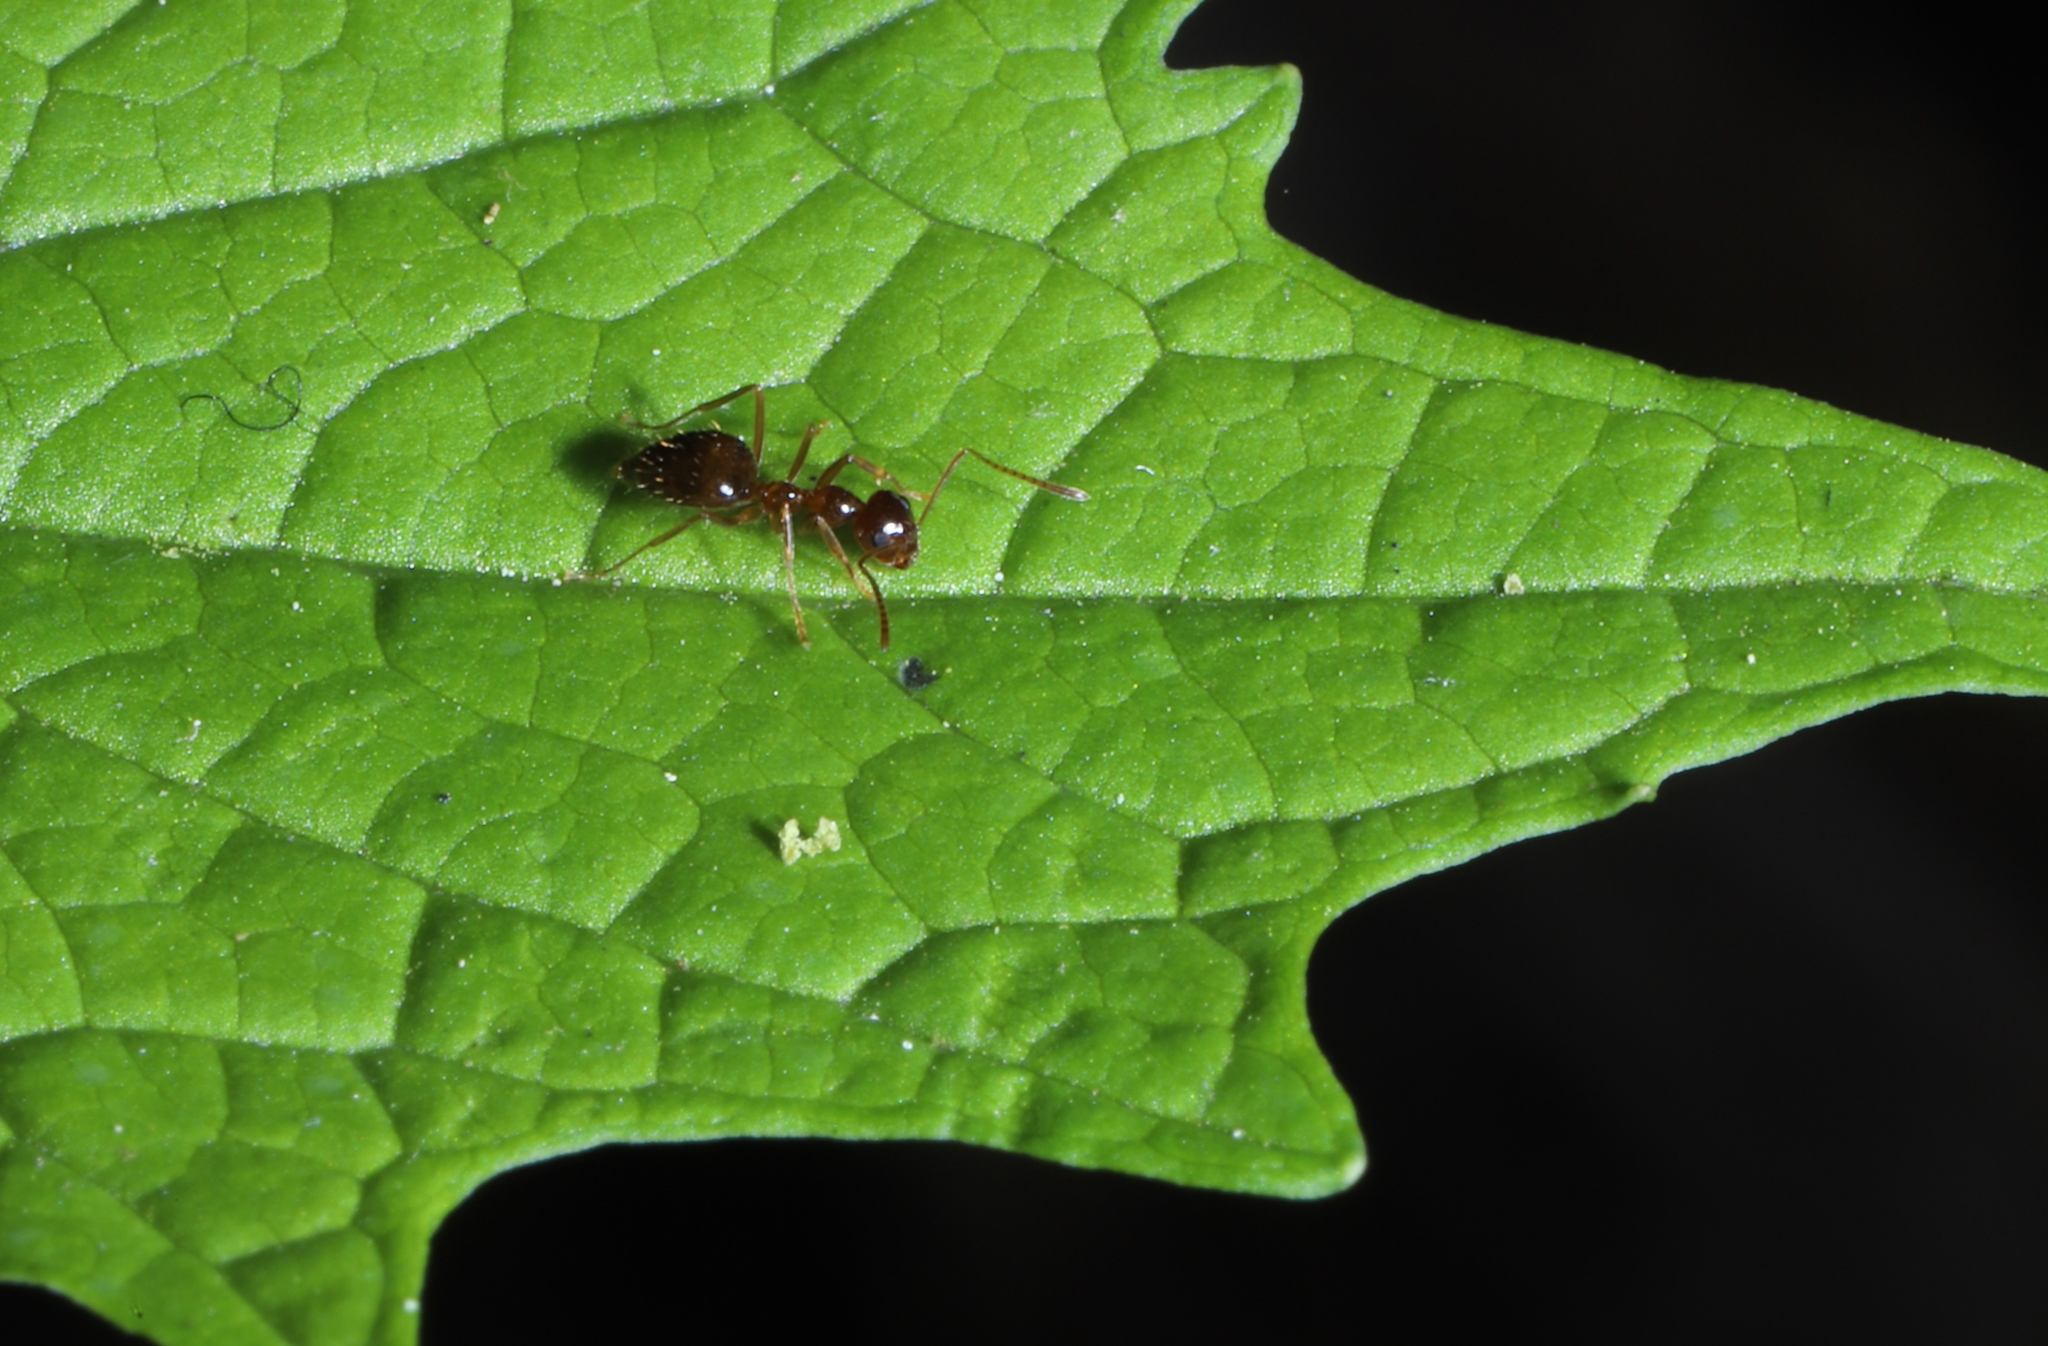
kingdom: Animalia
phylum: Arthropoda
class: Insecta
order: Hymenoptera
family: Formicidae
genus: Prenolepis
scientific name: Prenolepis imparis
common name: Small honey ant
